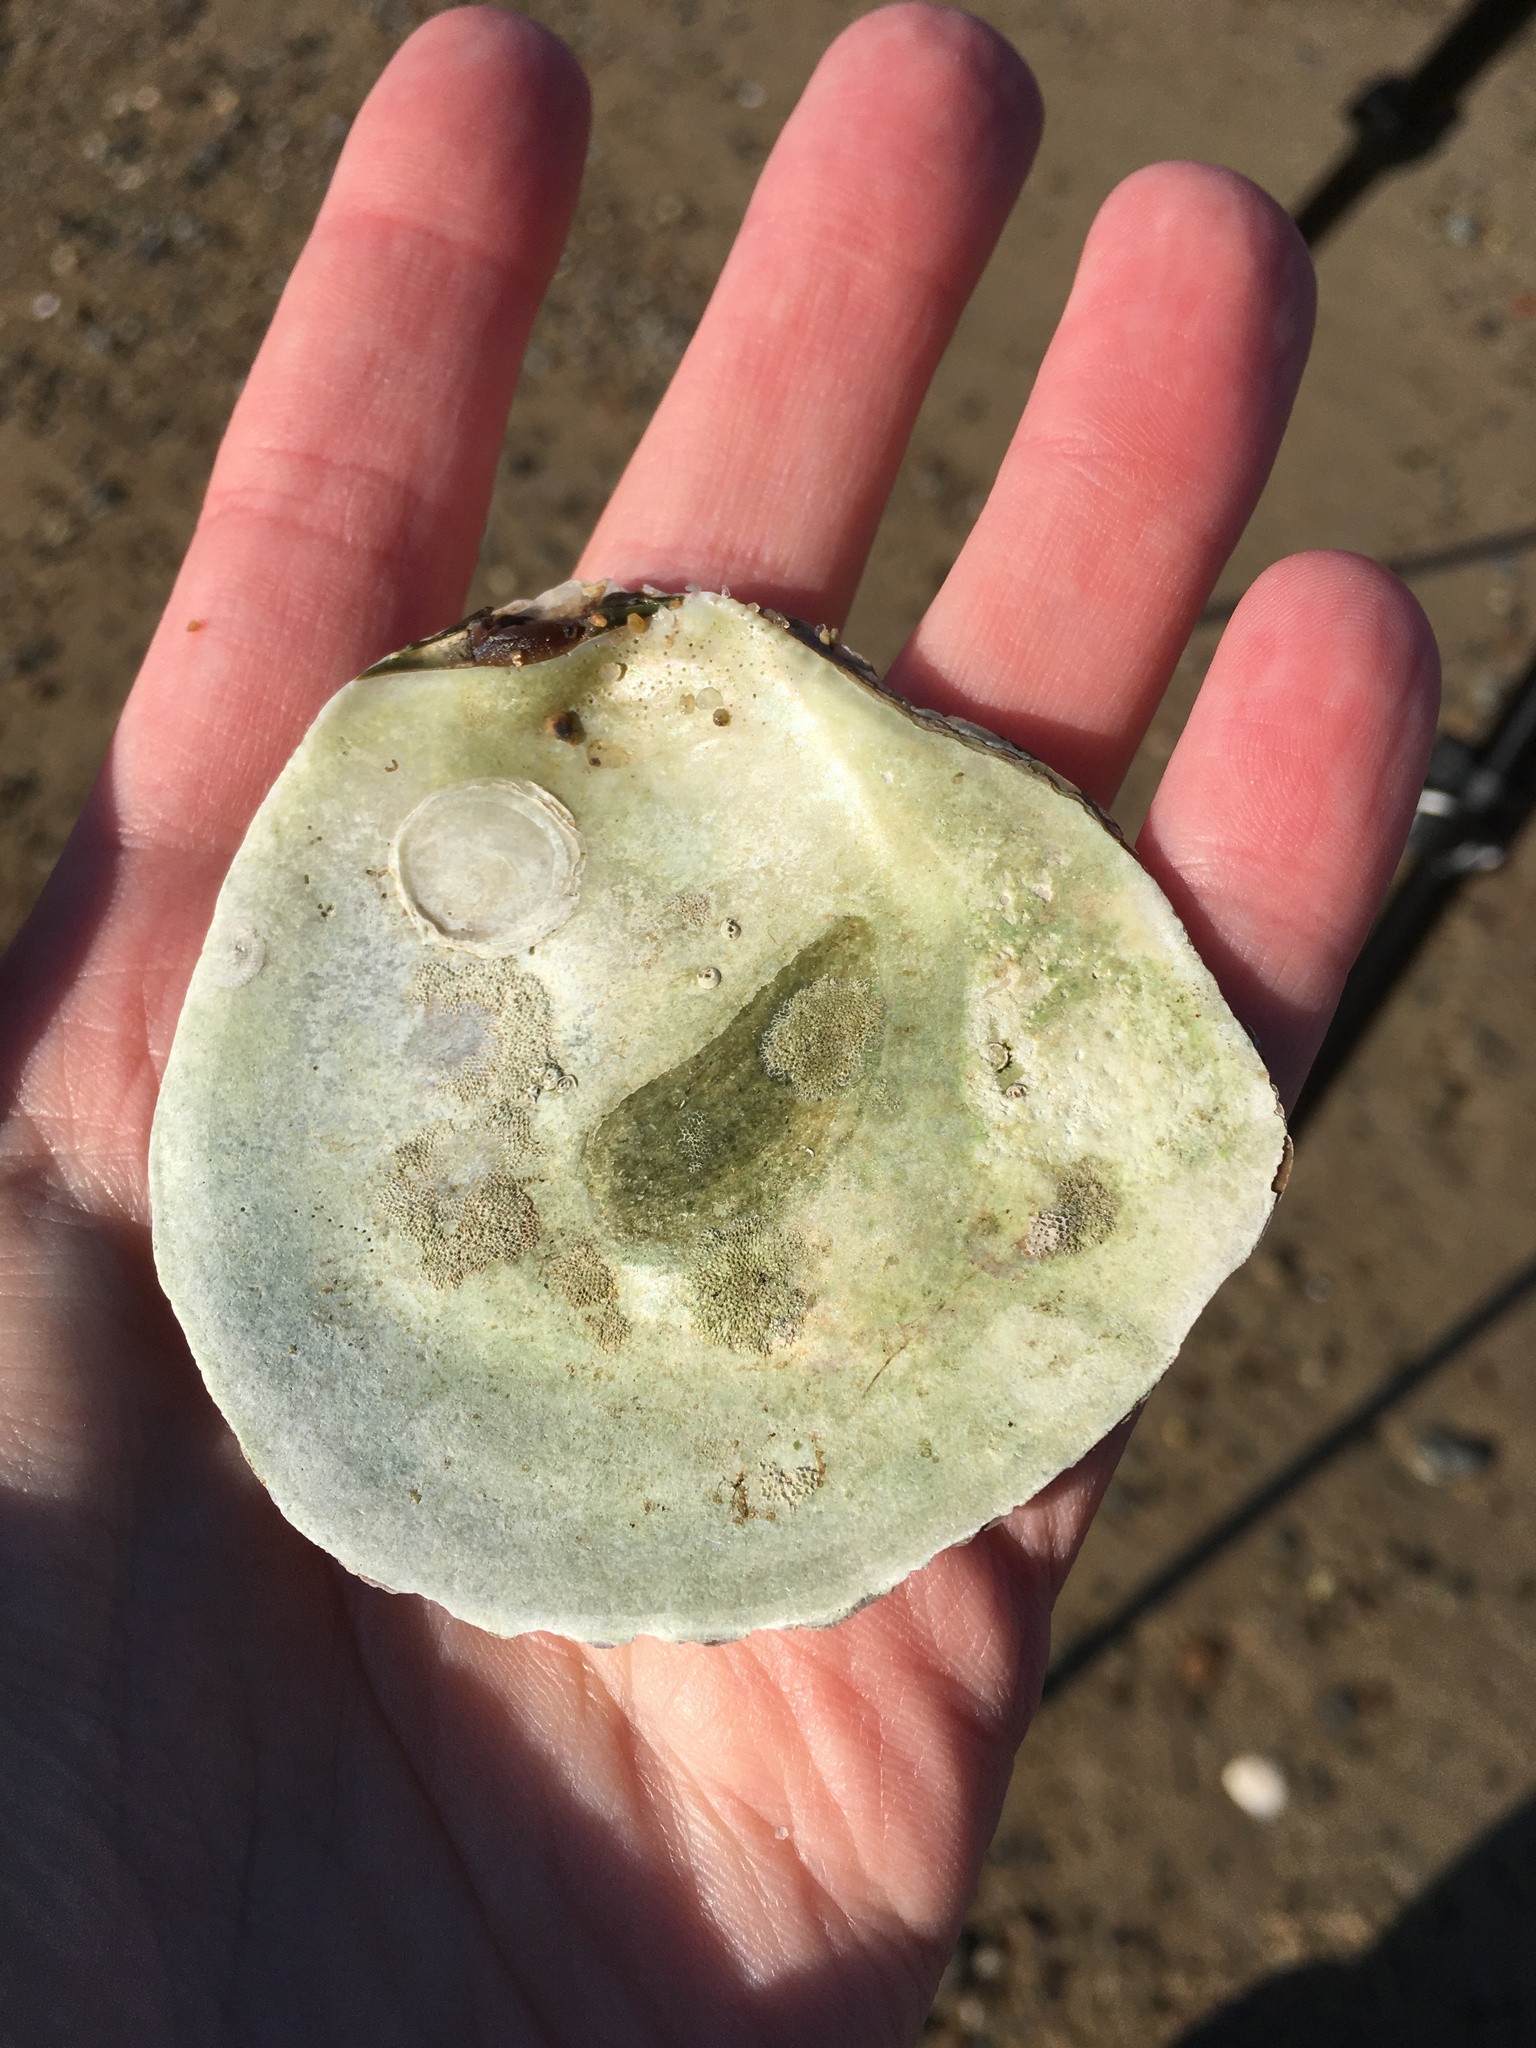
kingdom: Animalia
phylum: Mollusca
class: Bivalvia
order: Ostreida
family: Ostreidae
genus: Ostrea
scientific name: Ostrea edulis
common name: Flat oyster
